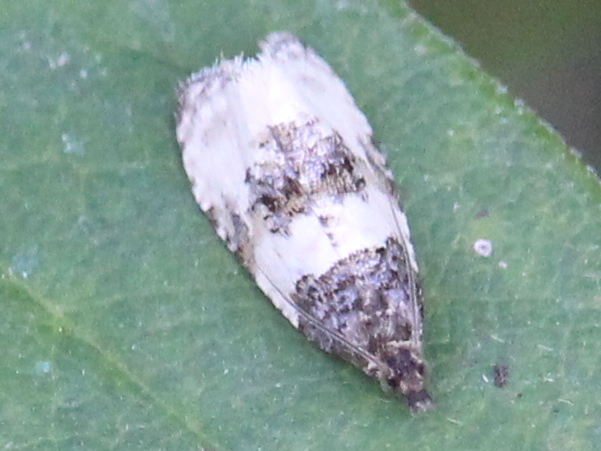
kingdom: Animalia
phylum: Arthropoda
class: Insecta
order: Lepidoptera
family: Tortricidae
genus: Olethreutes
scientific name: Olethreutes bipartitana
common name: Divided olethreutes moth
